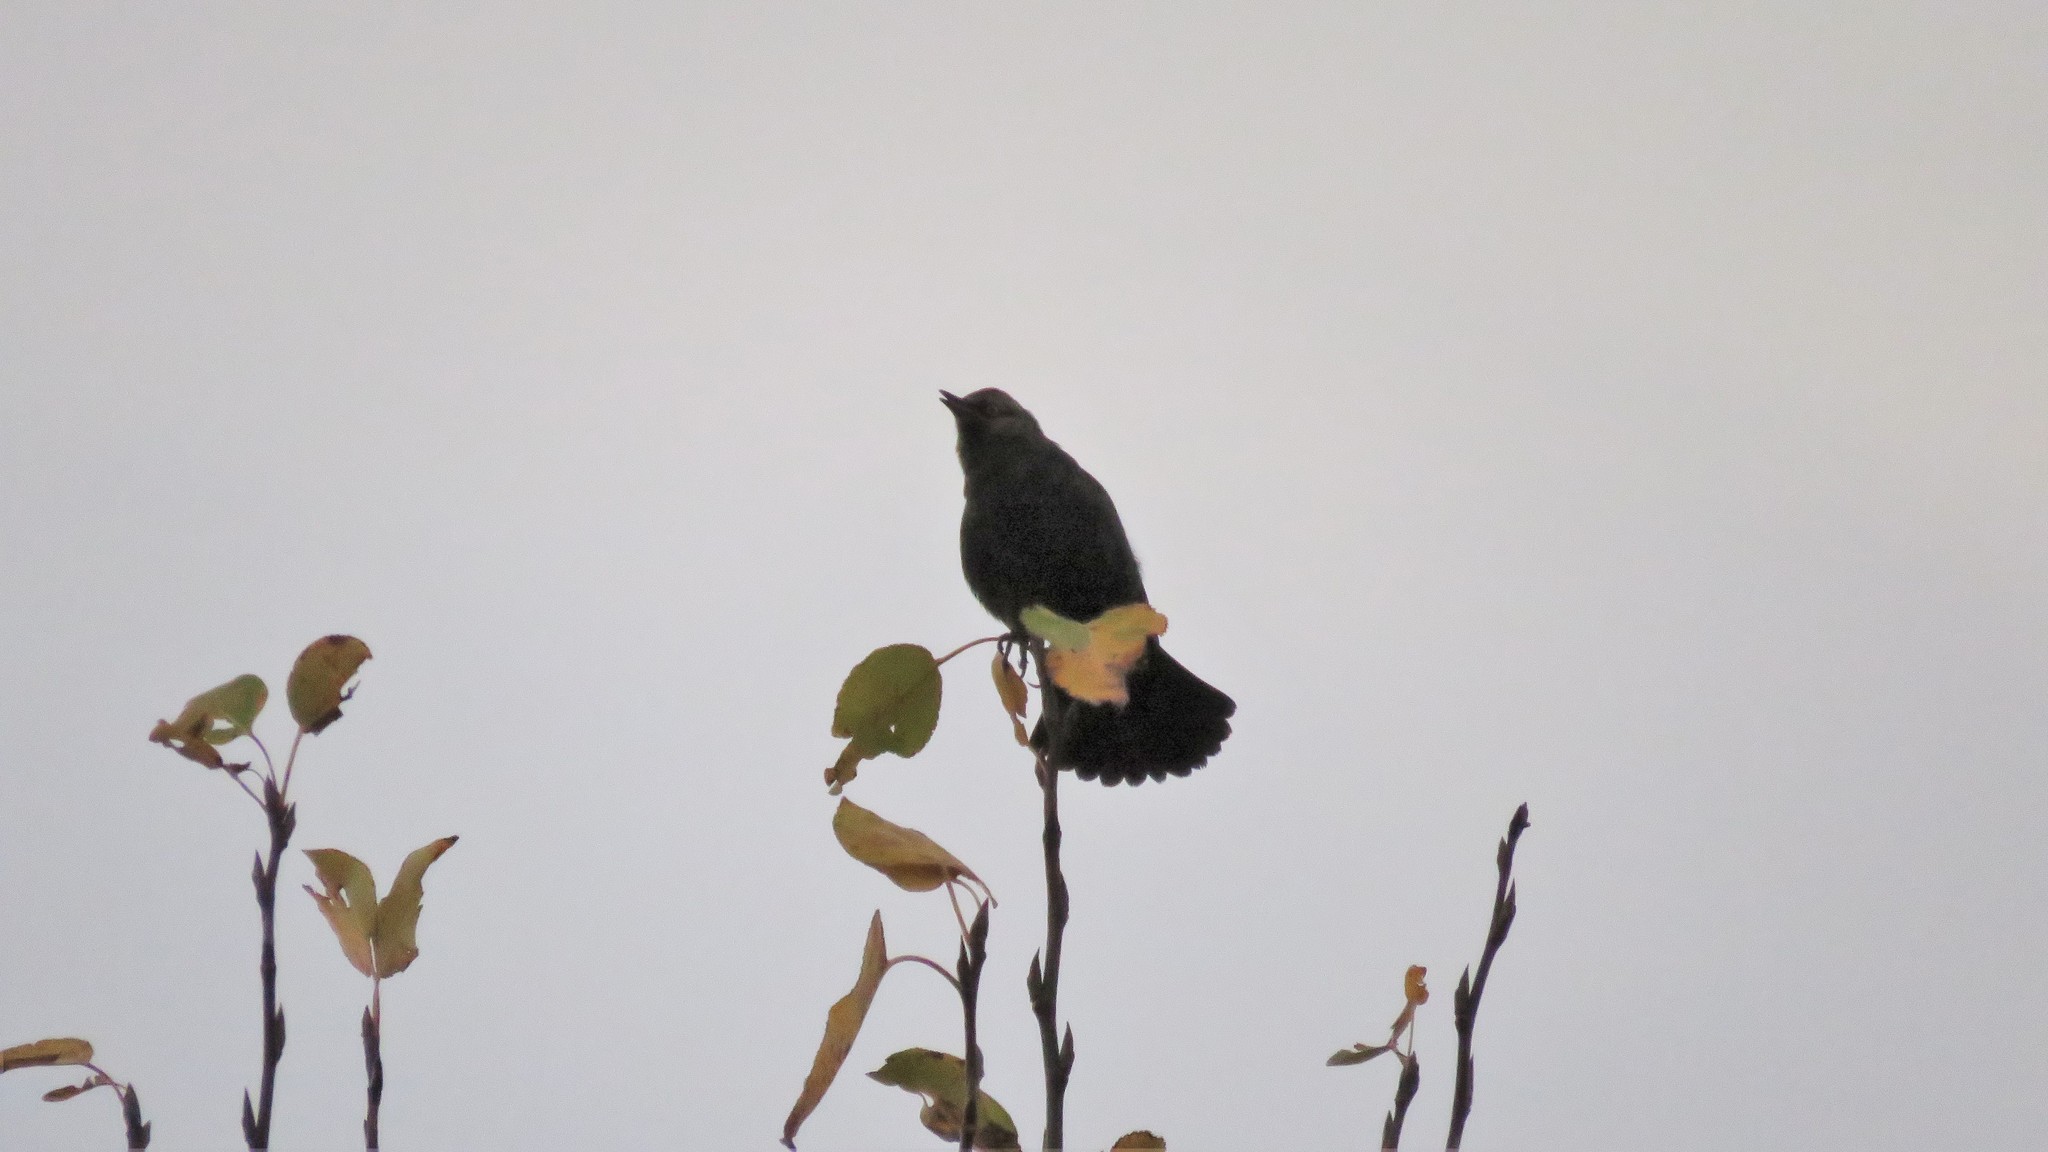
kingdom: Animalia
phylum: Chordata
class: Aves
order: Passeriformes
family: Icteridae
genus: Euphagus
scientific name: Euphagus carolinus
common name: Rusty blackbird
